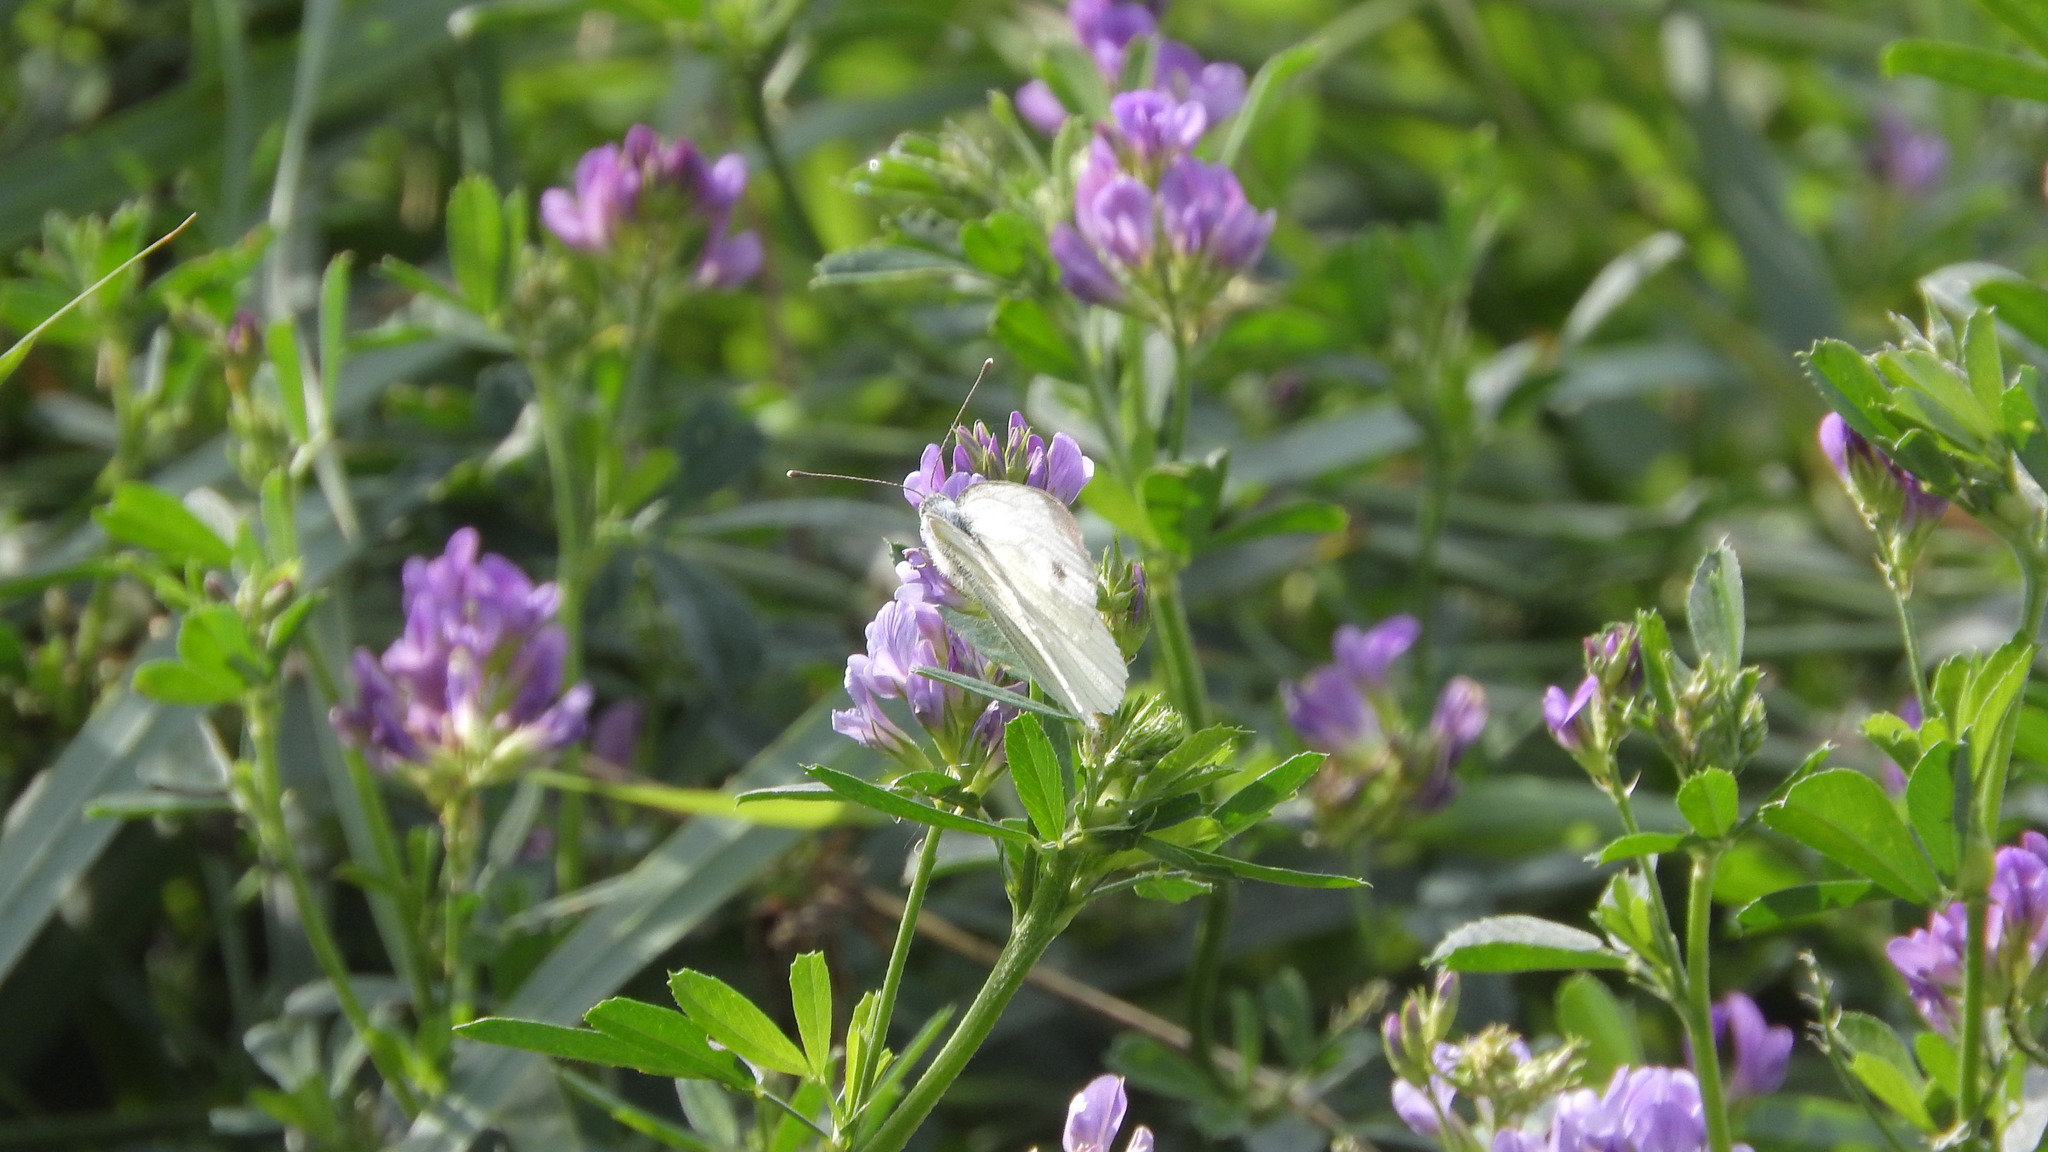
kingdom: Animalia
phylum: Arthropoda
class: Insecta
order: Lepidoptera
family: Pieridae
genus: Pieris
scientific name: Pieris napi
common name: Green-veined white
